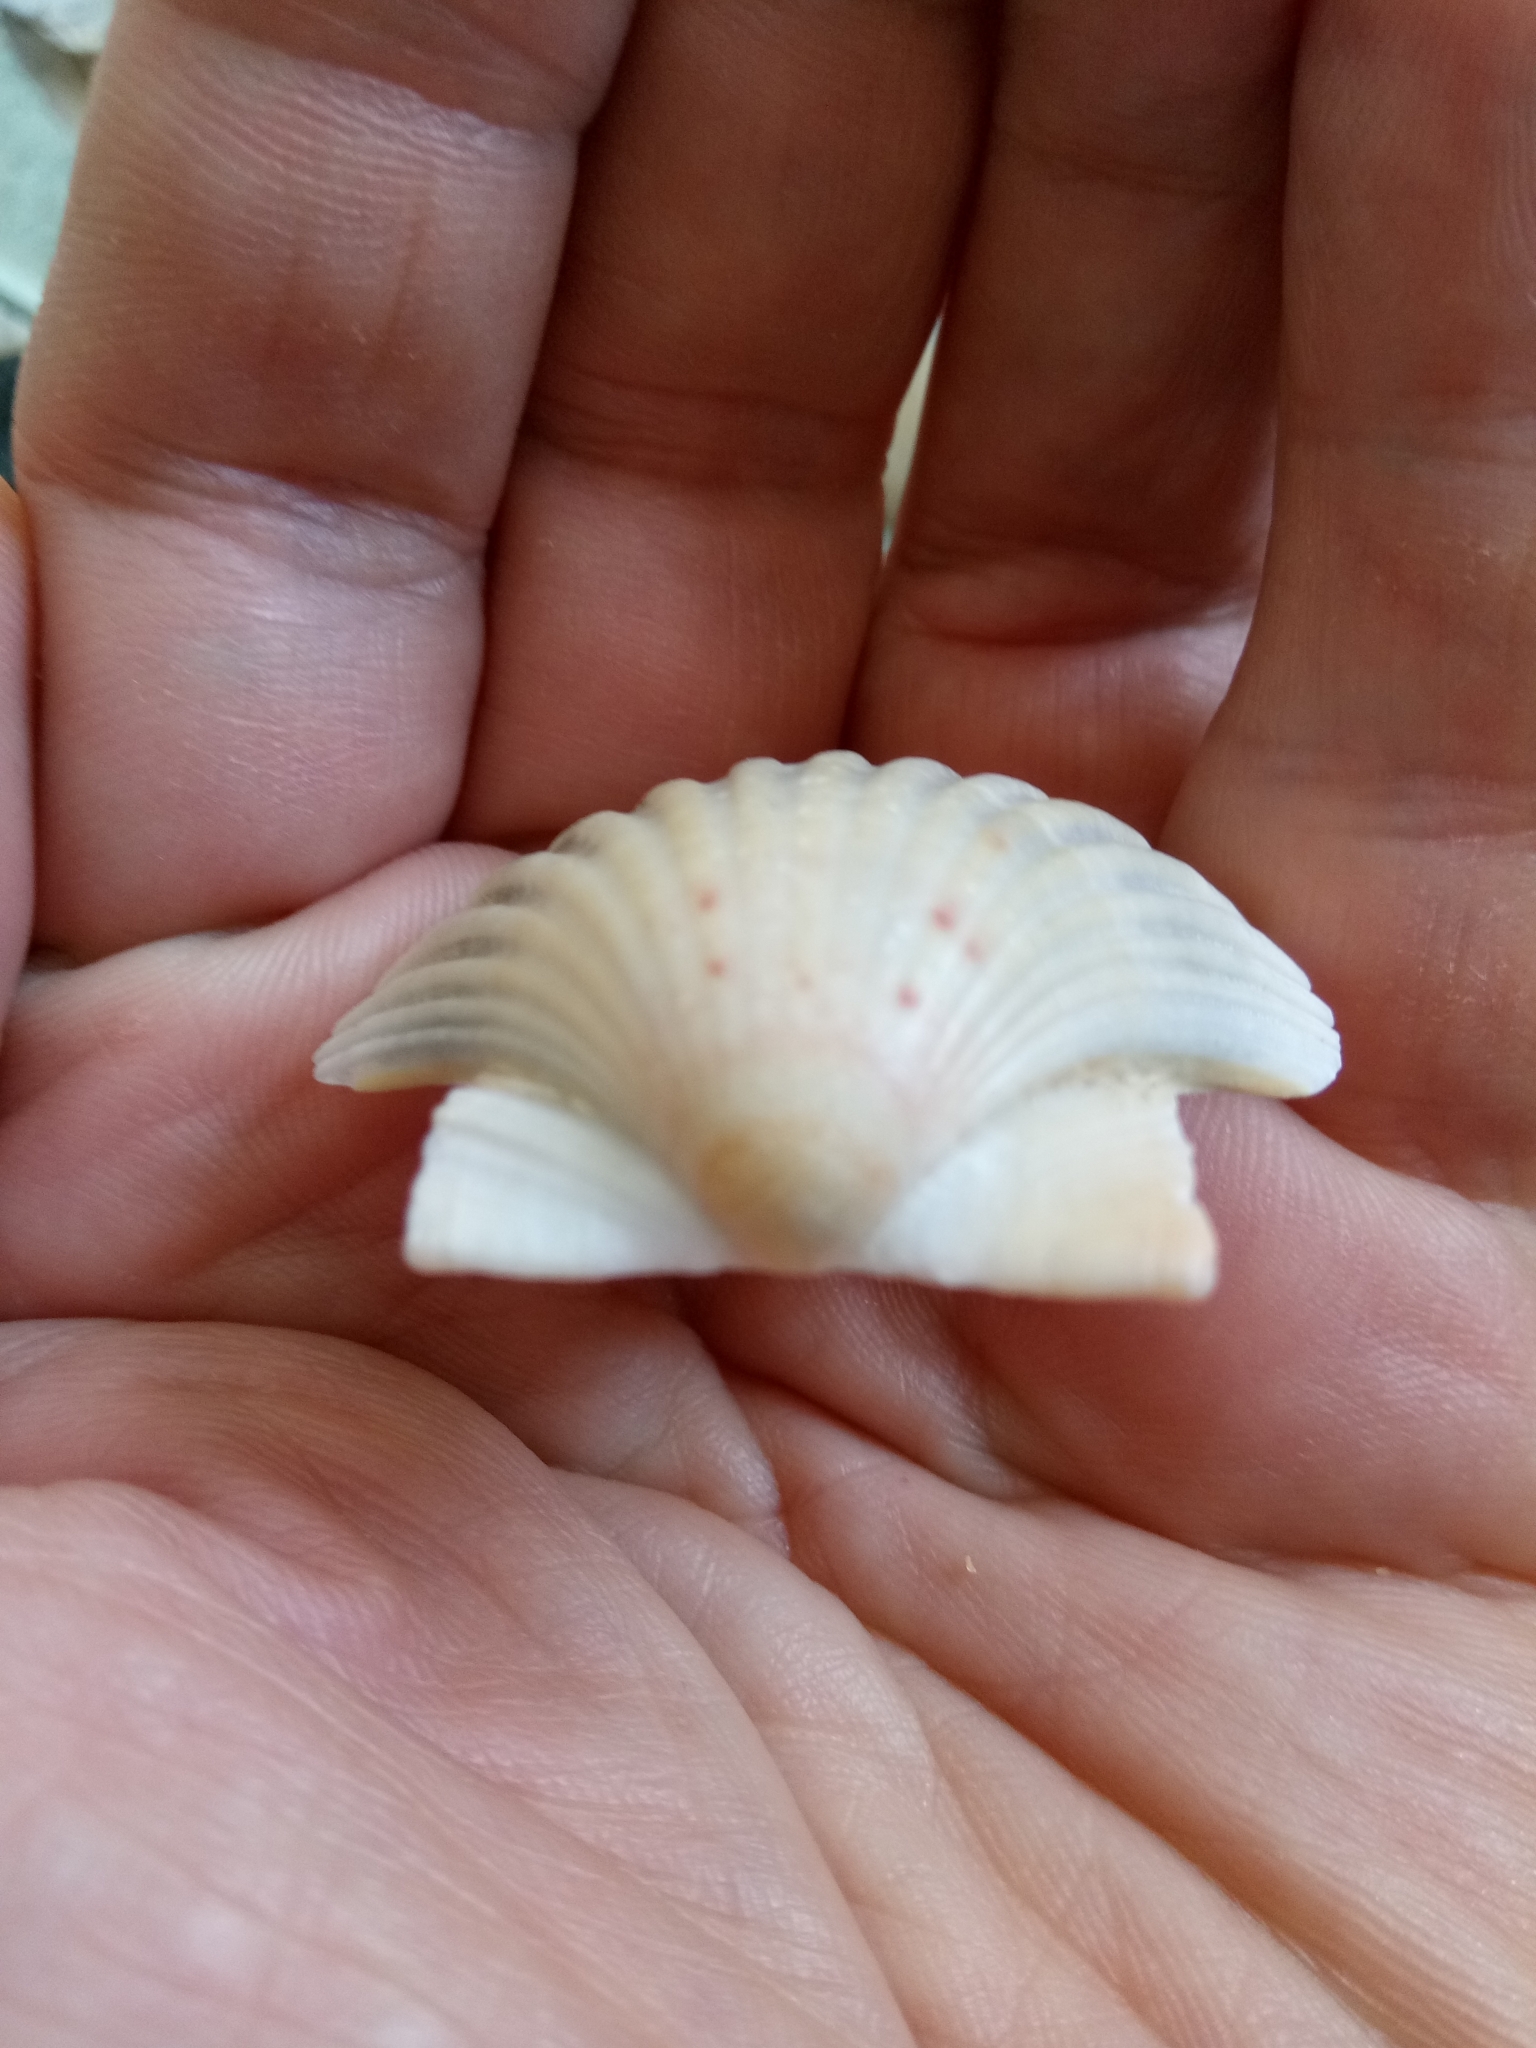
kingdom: Animalia
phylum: Mollusca
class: Bivalvia
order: Pectinida
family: Pectinidae
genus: Pecten
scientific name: Pecten jacobaeus
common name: St.james's scallop
